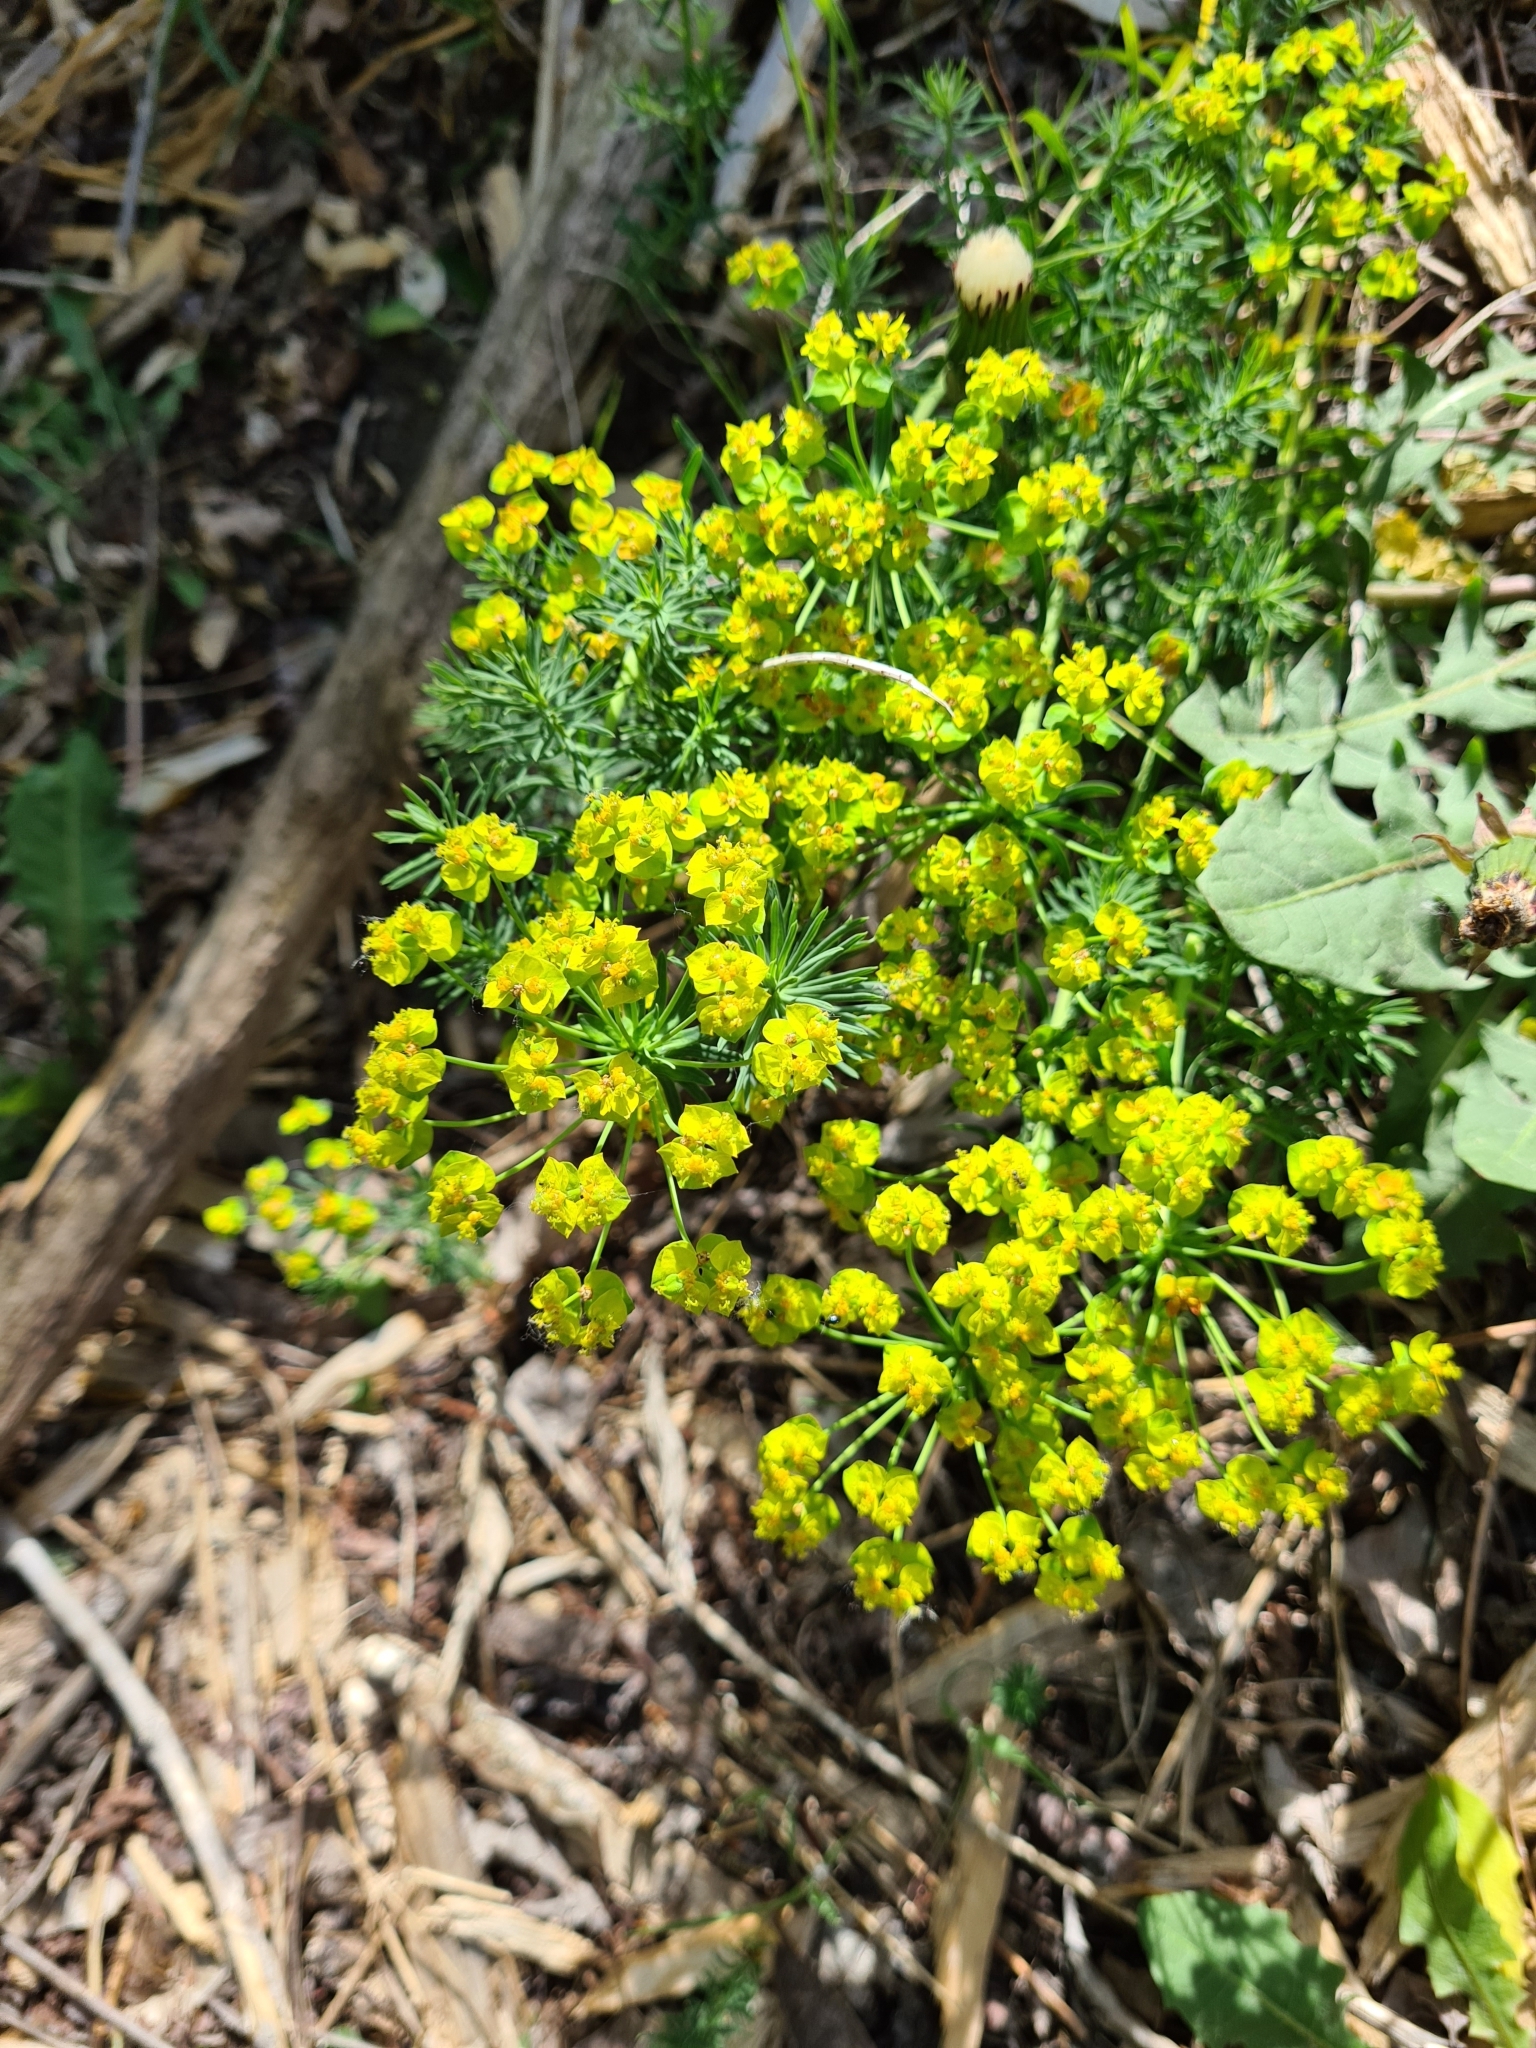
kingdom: Plantae
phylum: Tracheophyta
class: Magnoliopsida
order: Malpighiales
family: Euphorbiaceae
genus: Euphorbia
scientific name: Euphorbia cyparissias
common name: Cypress spurge
